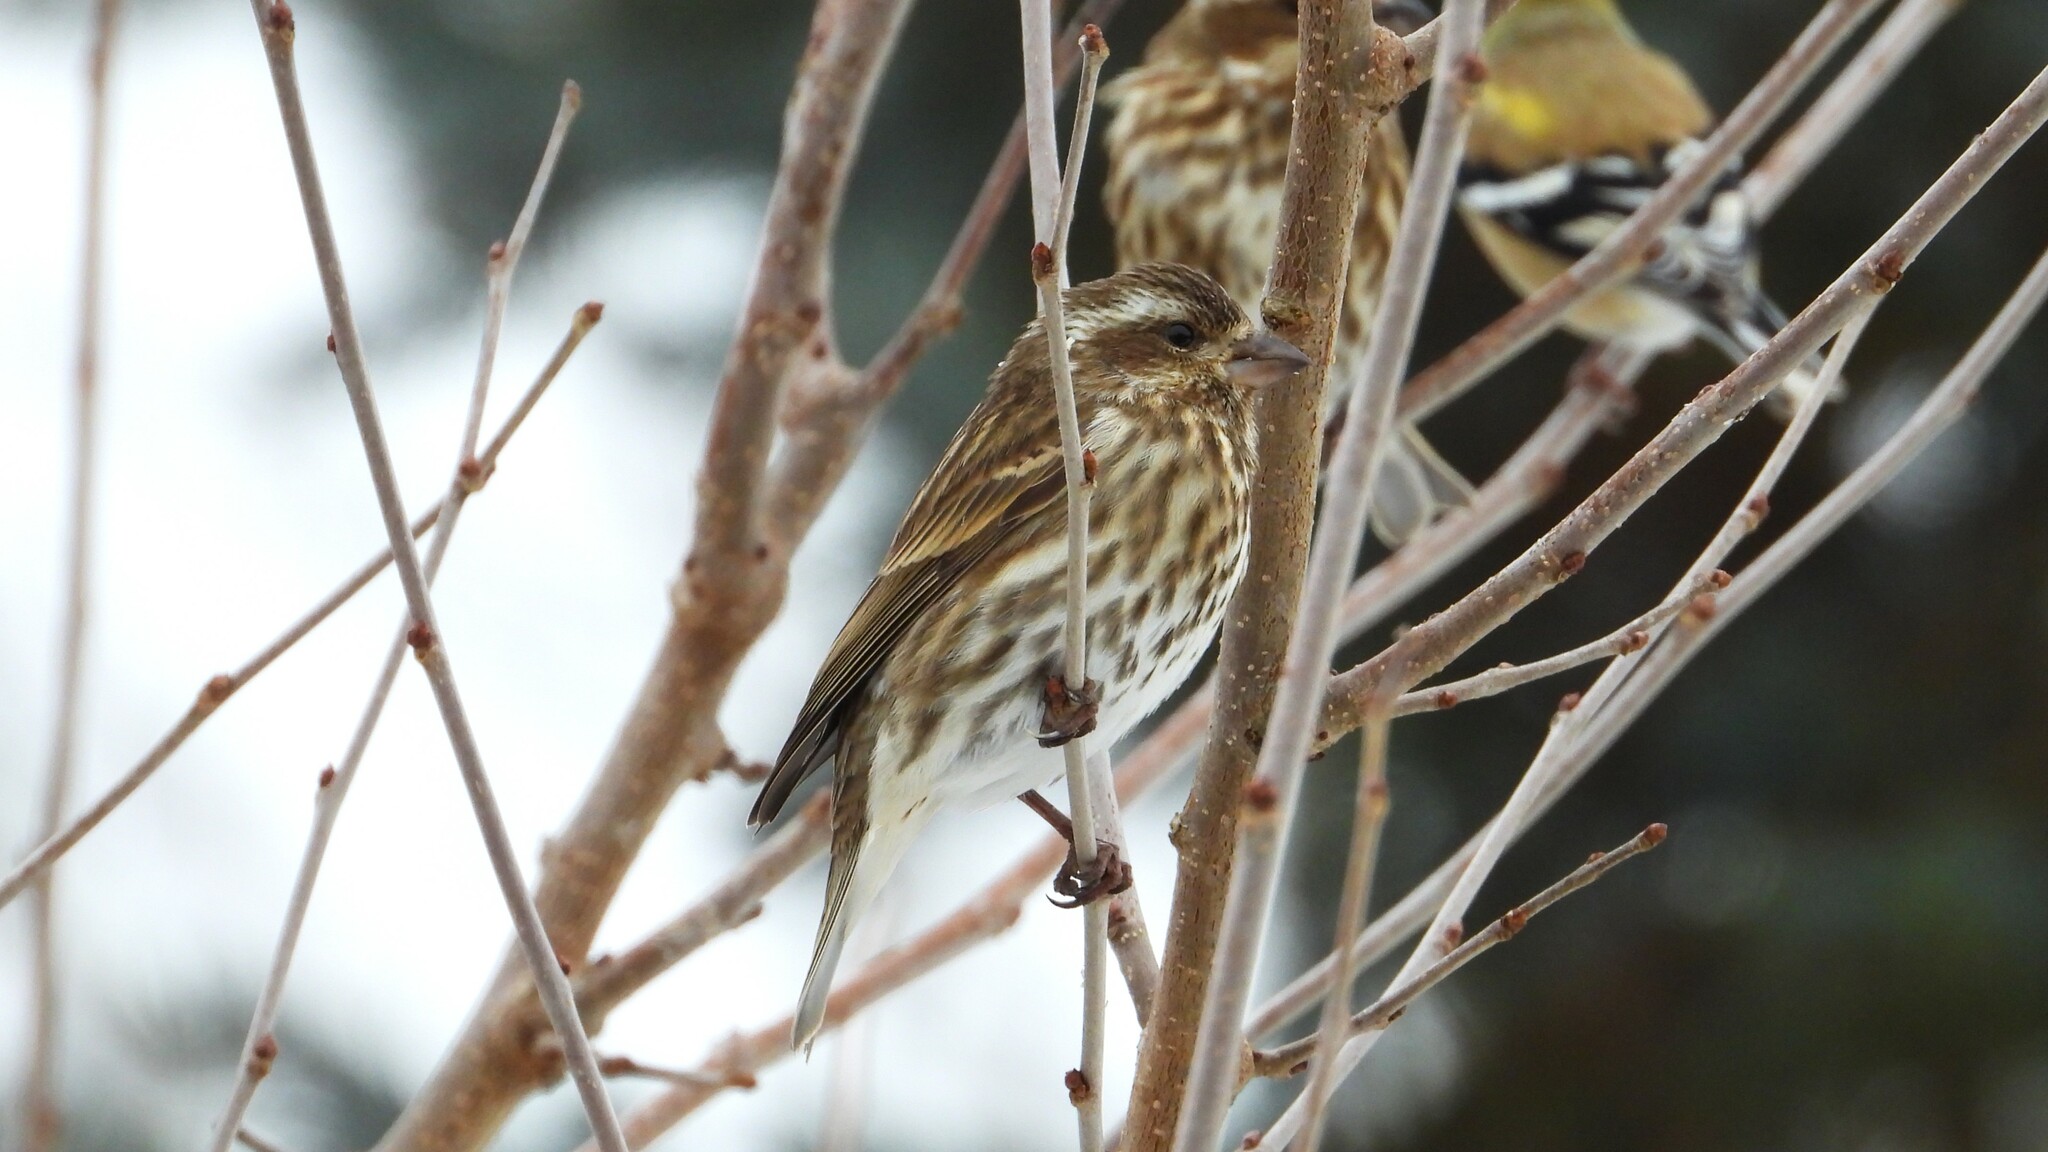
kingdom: Animalia
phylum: Chordata
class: Aves
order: Passeriformes
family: Fringillidae
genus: Haemorhous
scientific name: Haemorhous purpureus
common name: Purple finch
